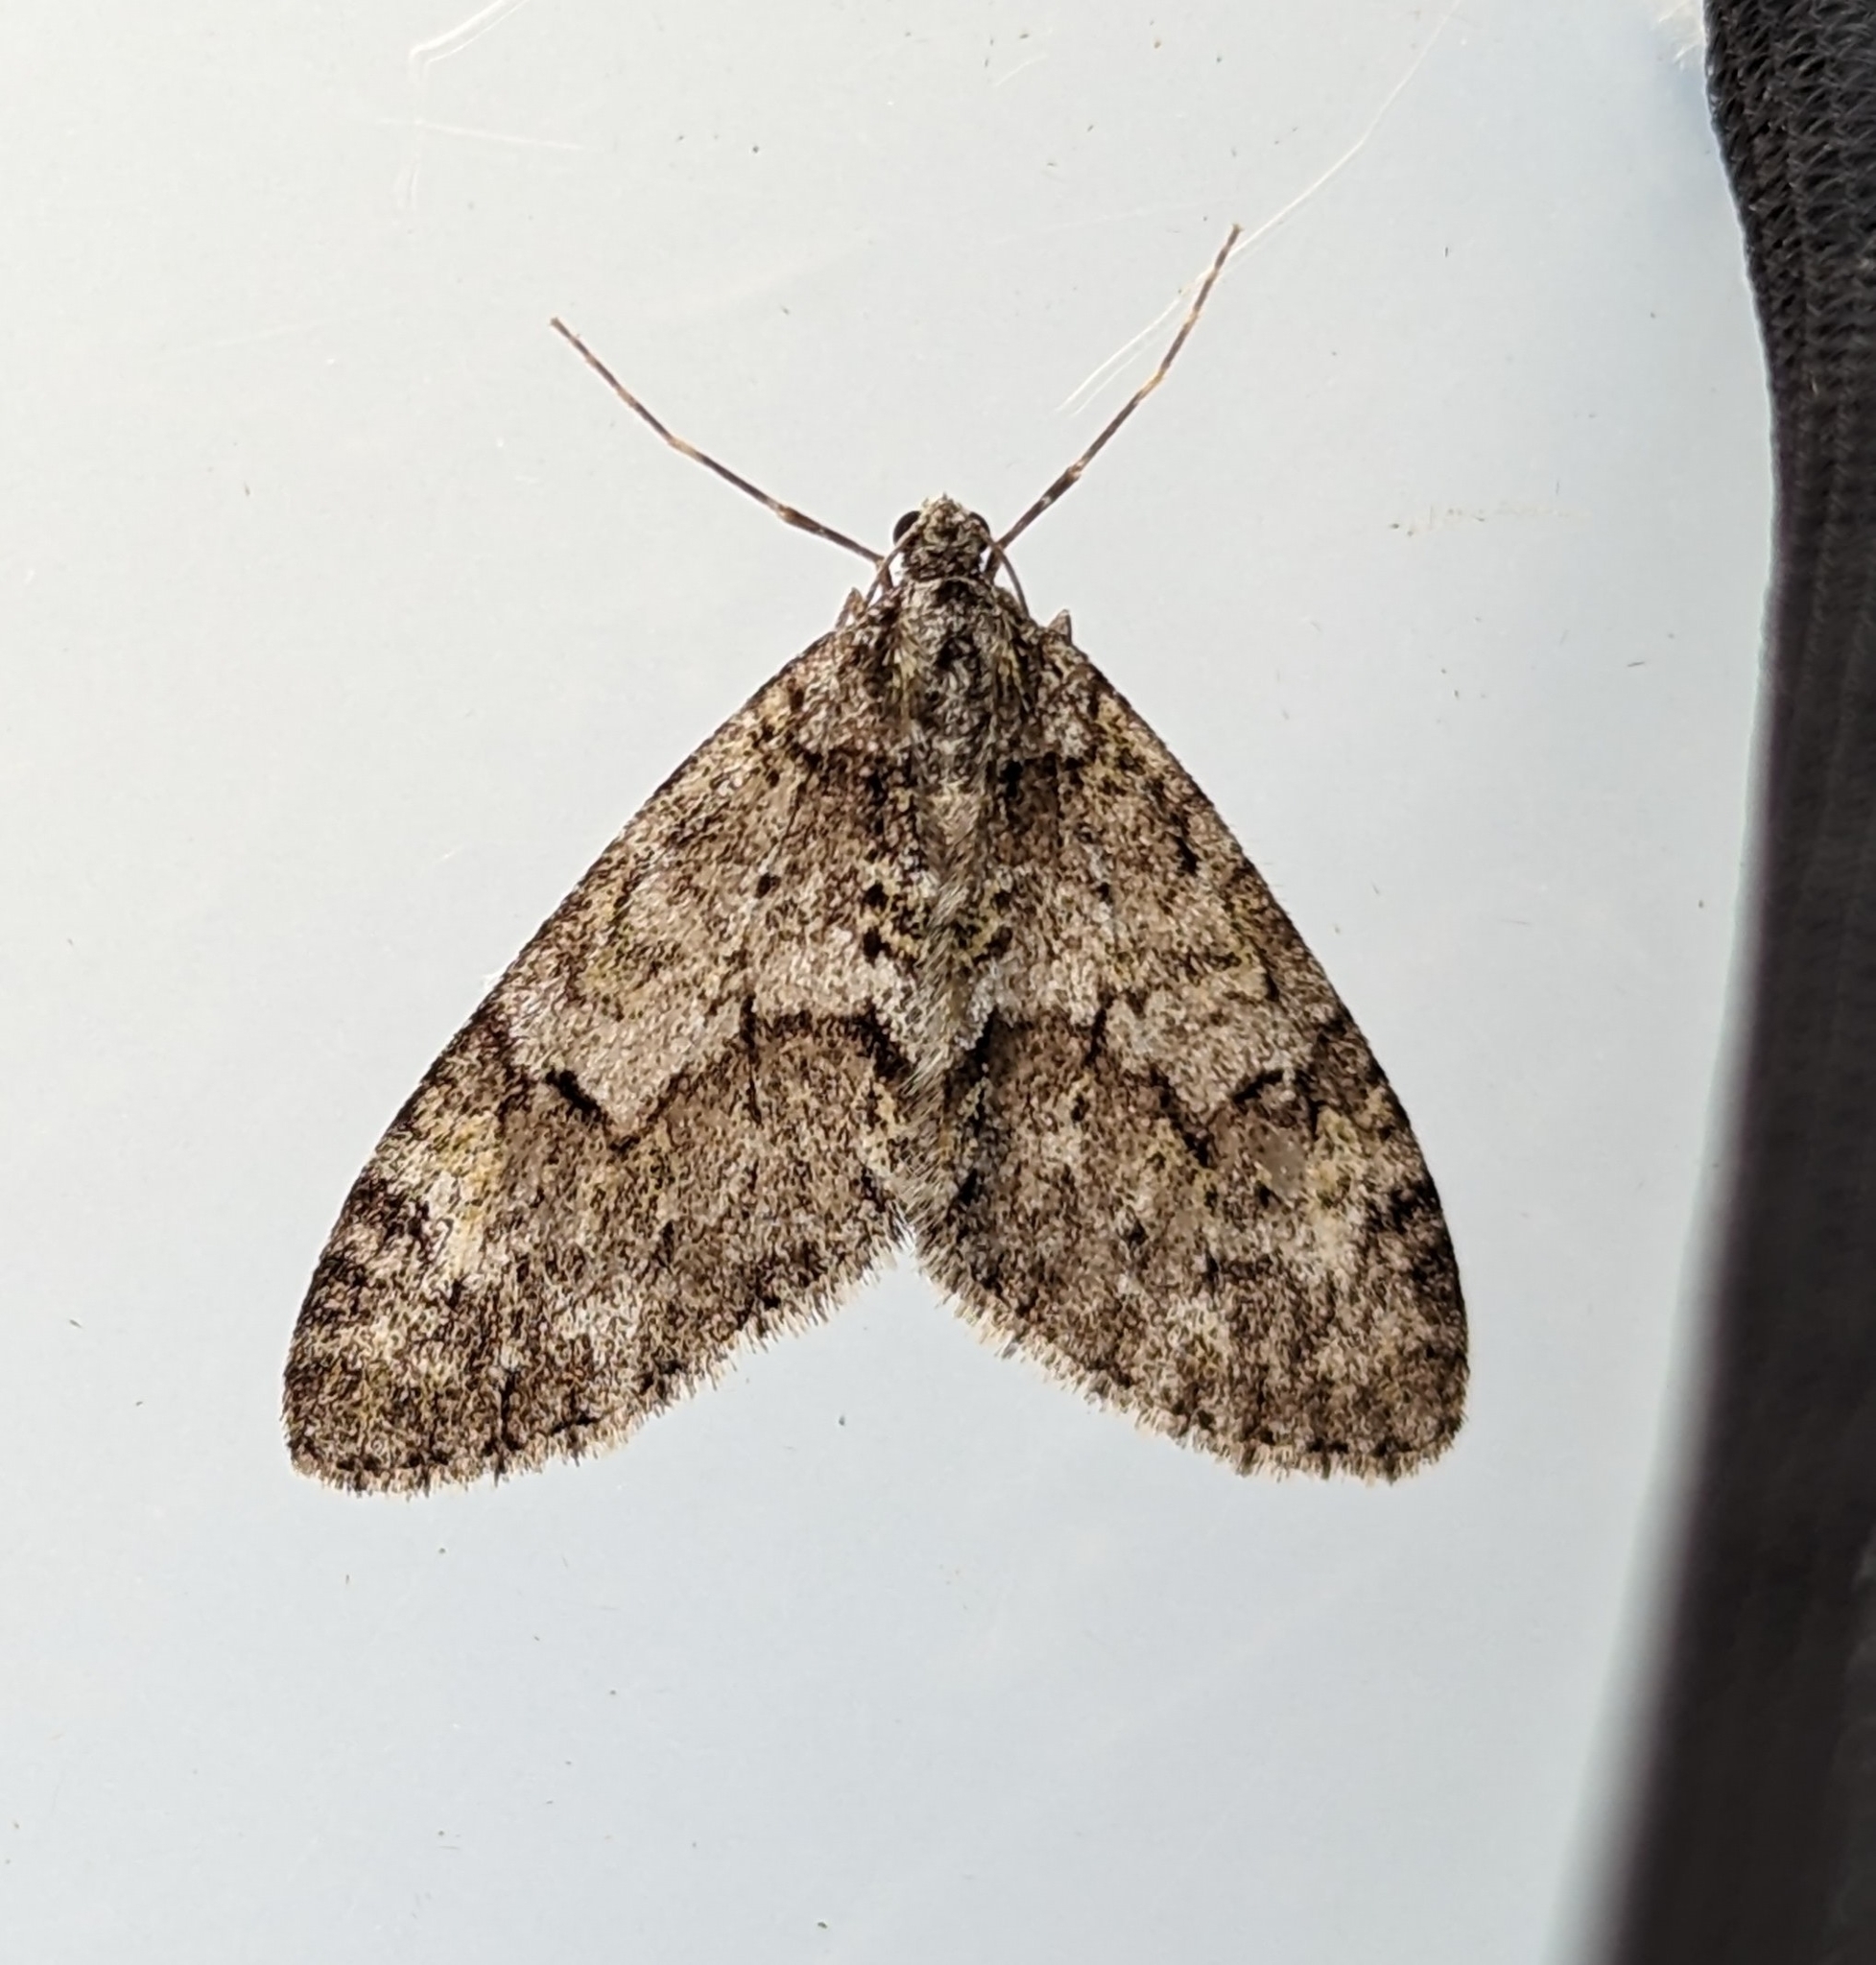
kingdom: Animalia
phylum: Arthropoda
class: Insecta
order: Lepidoptera
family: Geometridae
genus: Cladara
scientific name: Cladara limitaria
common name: Mottled gray carpet
